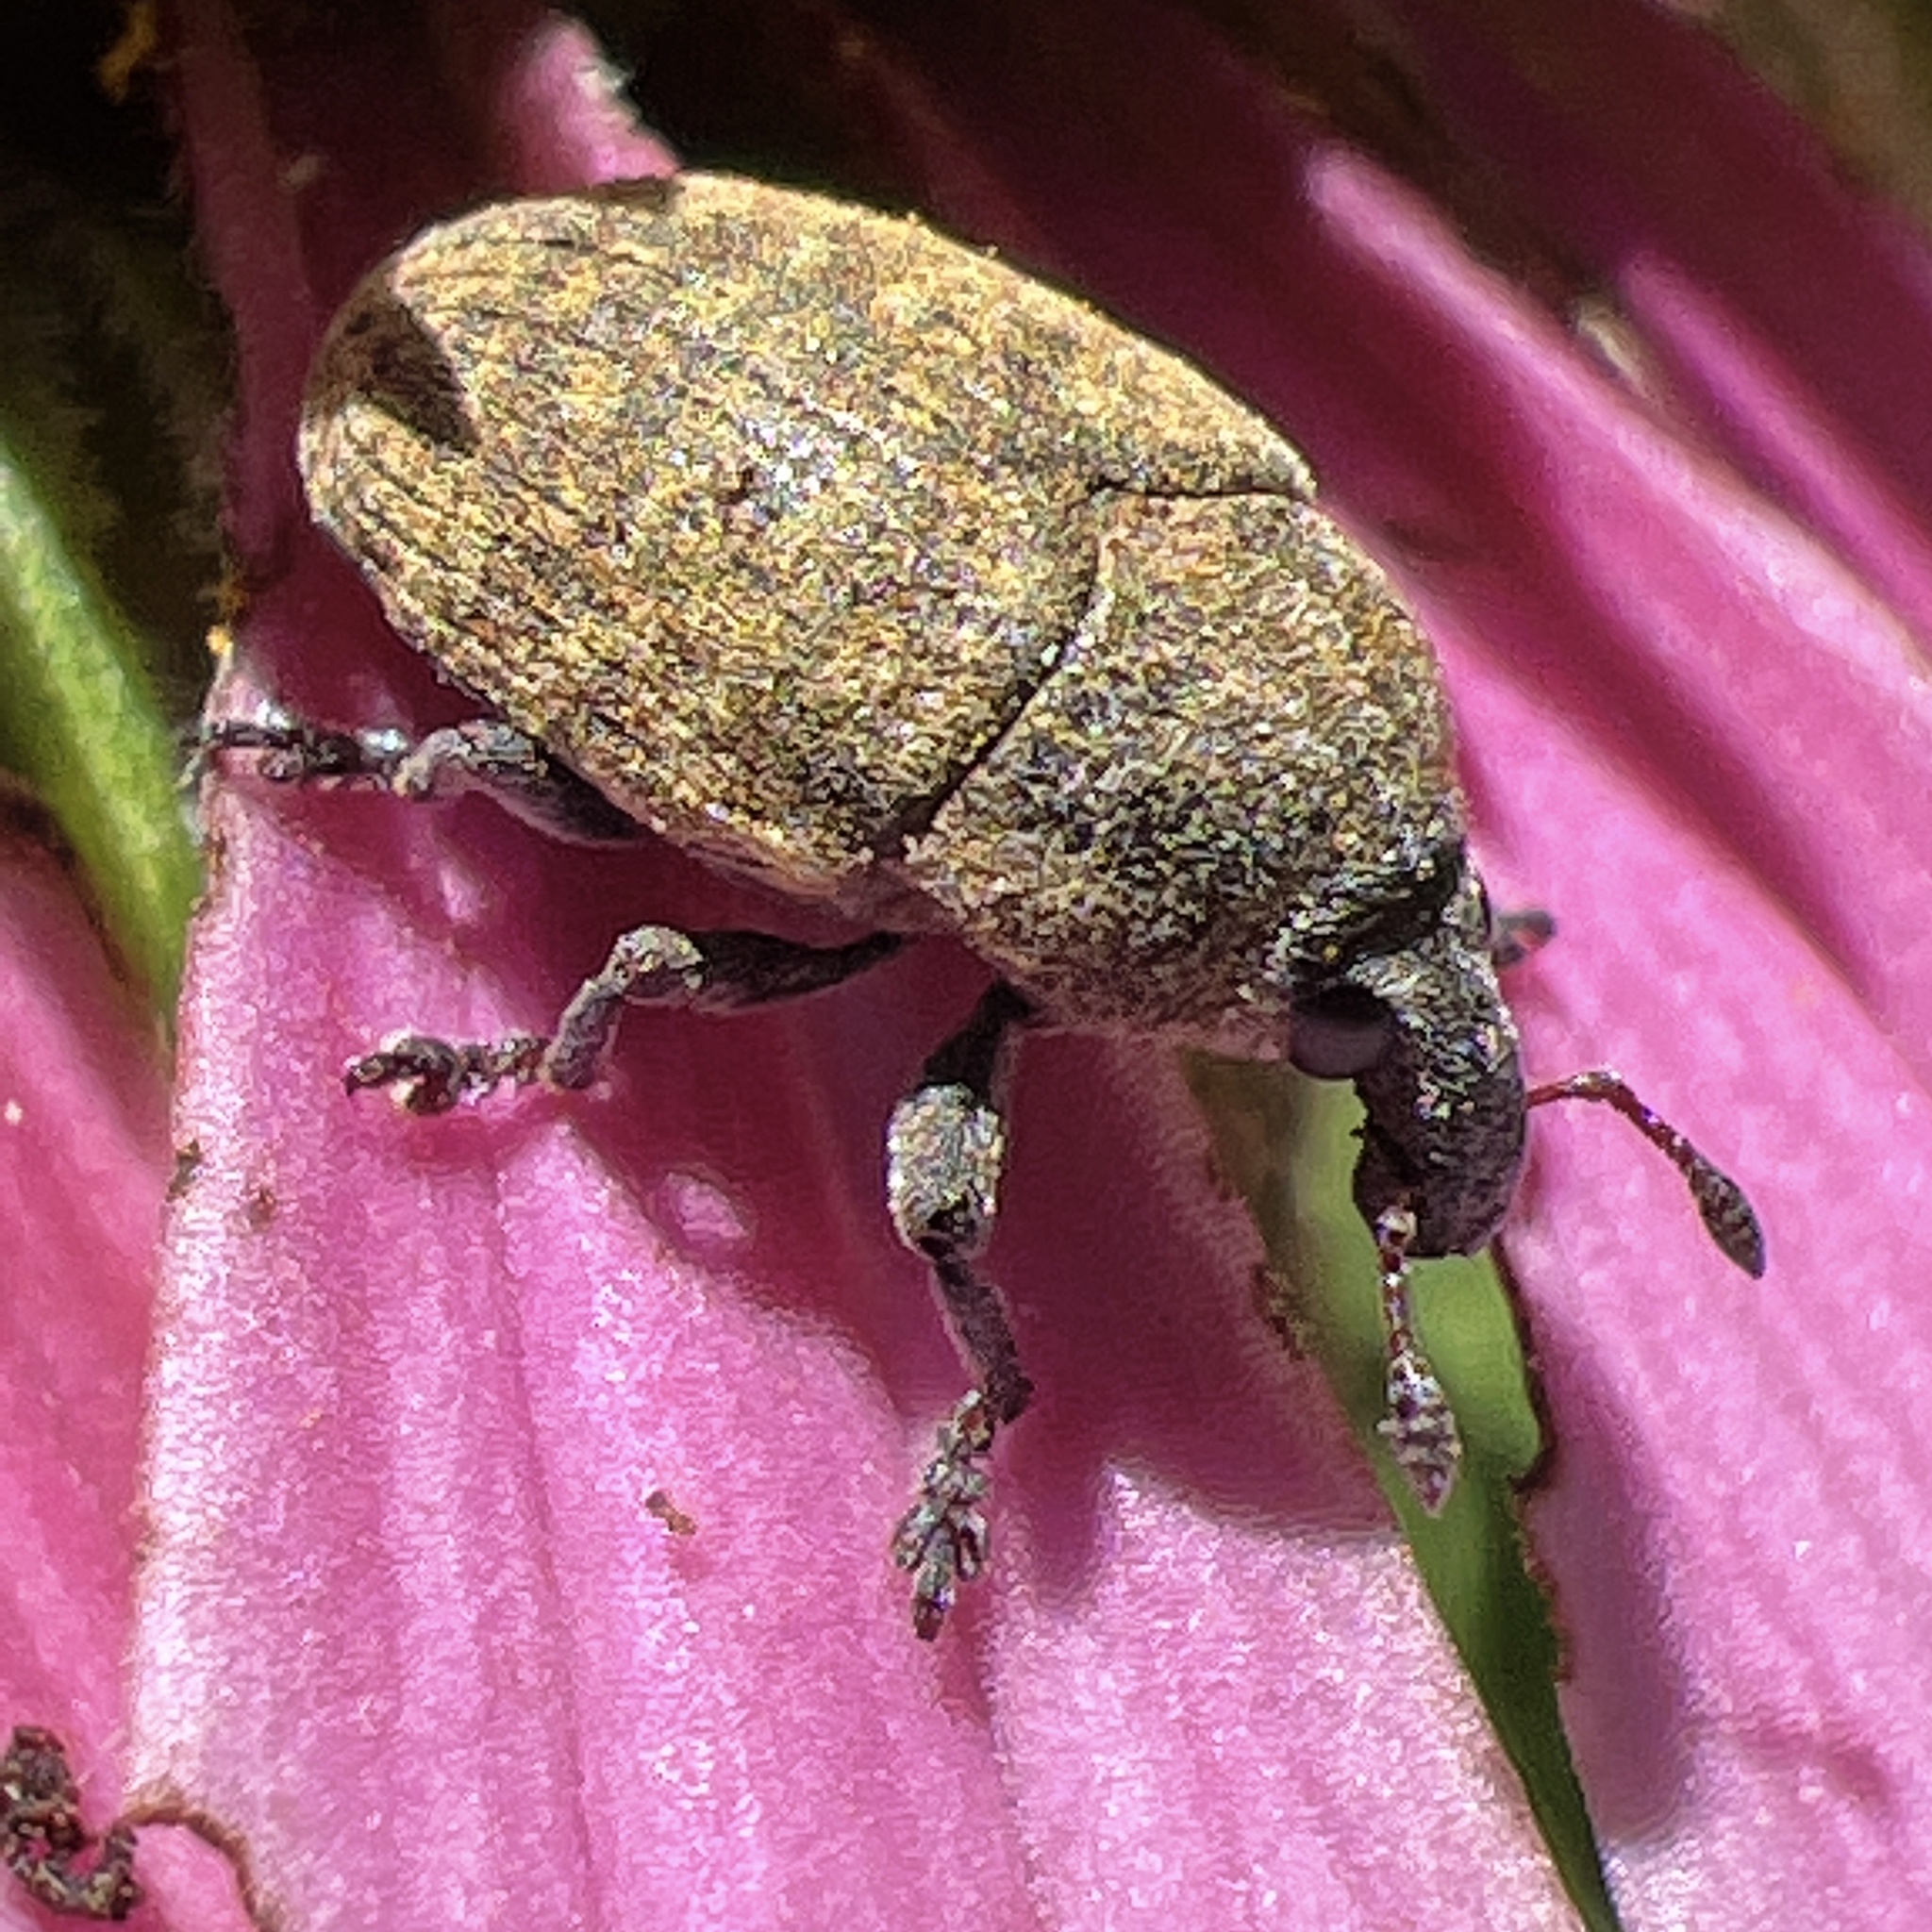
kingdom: Animalia
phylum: Arthropoda
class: Insecta
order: Coleoptera
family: Curculionidae
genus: Larinus
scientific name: Larinus obtusus
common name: Weevil
